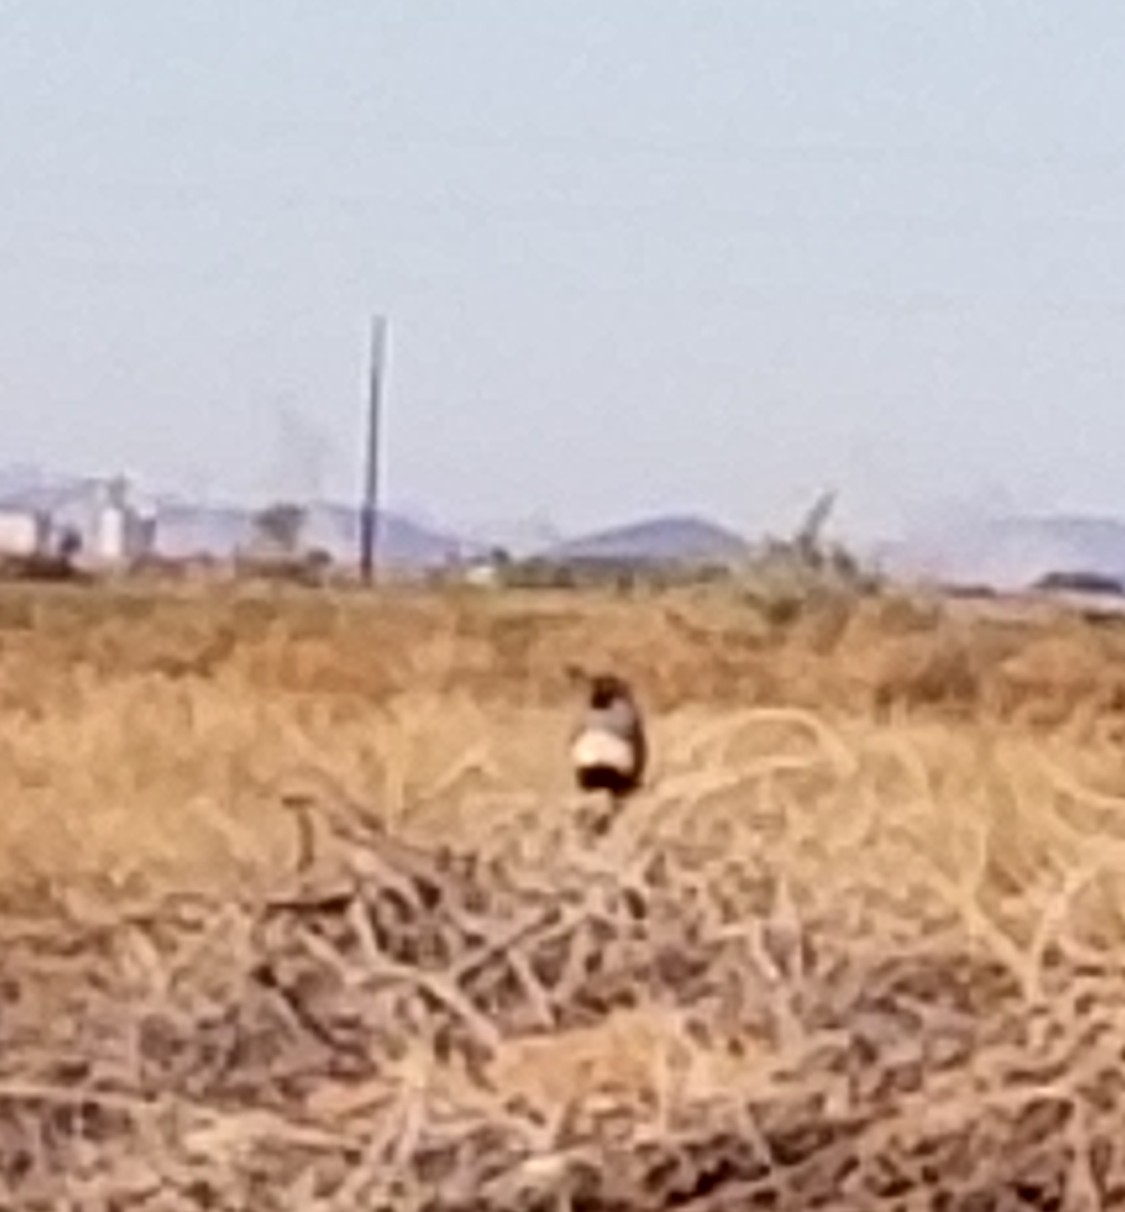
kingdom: Animalia
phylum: Chordata
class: Aves
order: Galliformes
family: Odontophoridae
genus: Callipepla
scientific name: Callipepla gambelii
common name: Gambel's quail
